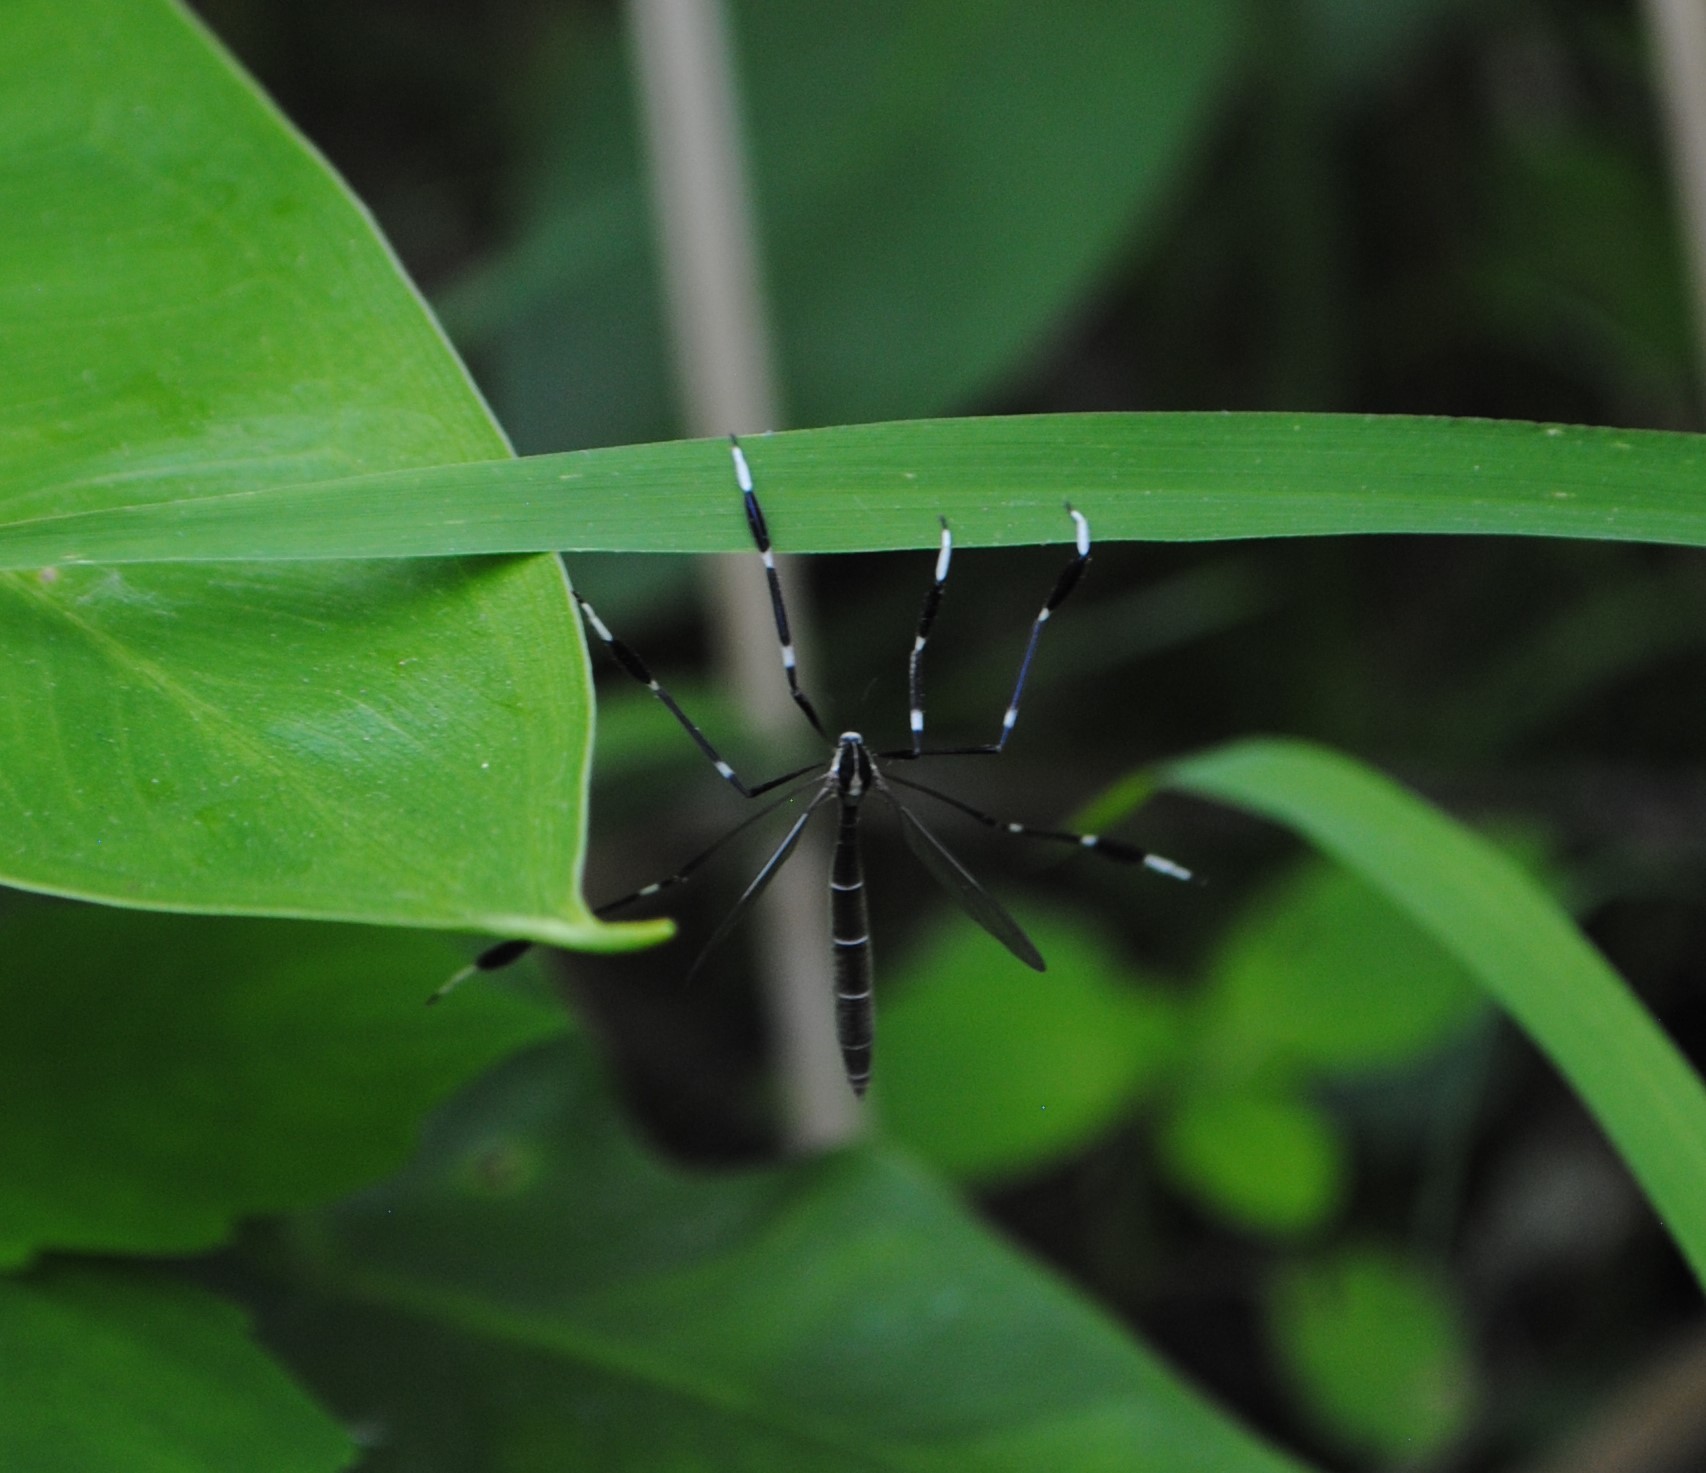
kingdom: Animalia
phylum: Arthropoda
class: Insecta
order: Diptera
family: Ptychopteridae
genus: Bittacomorpha
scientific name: Bittacomorpha clavipes
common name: Eastern phantom crane fly
